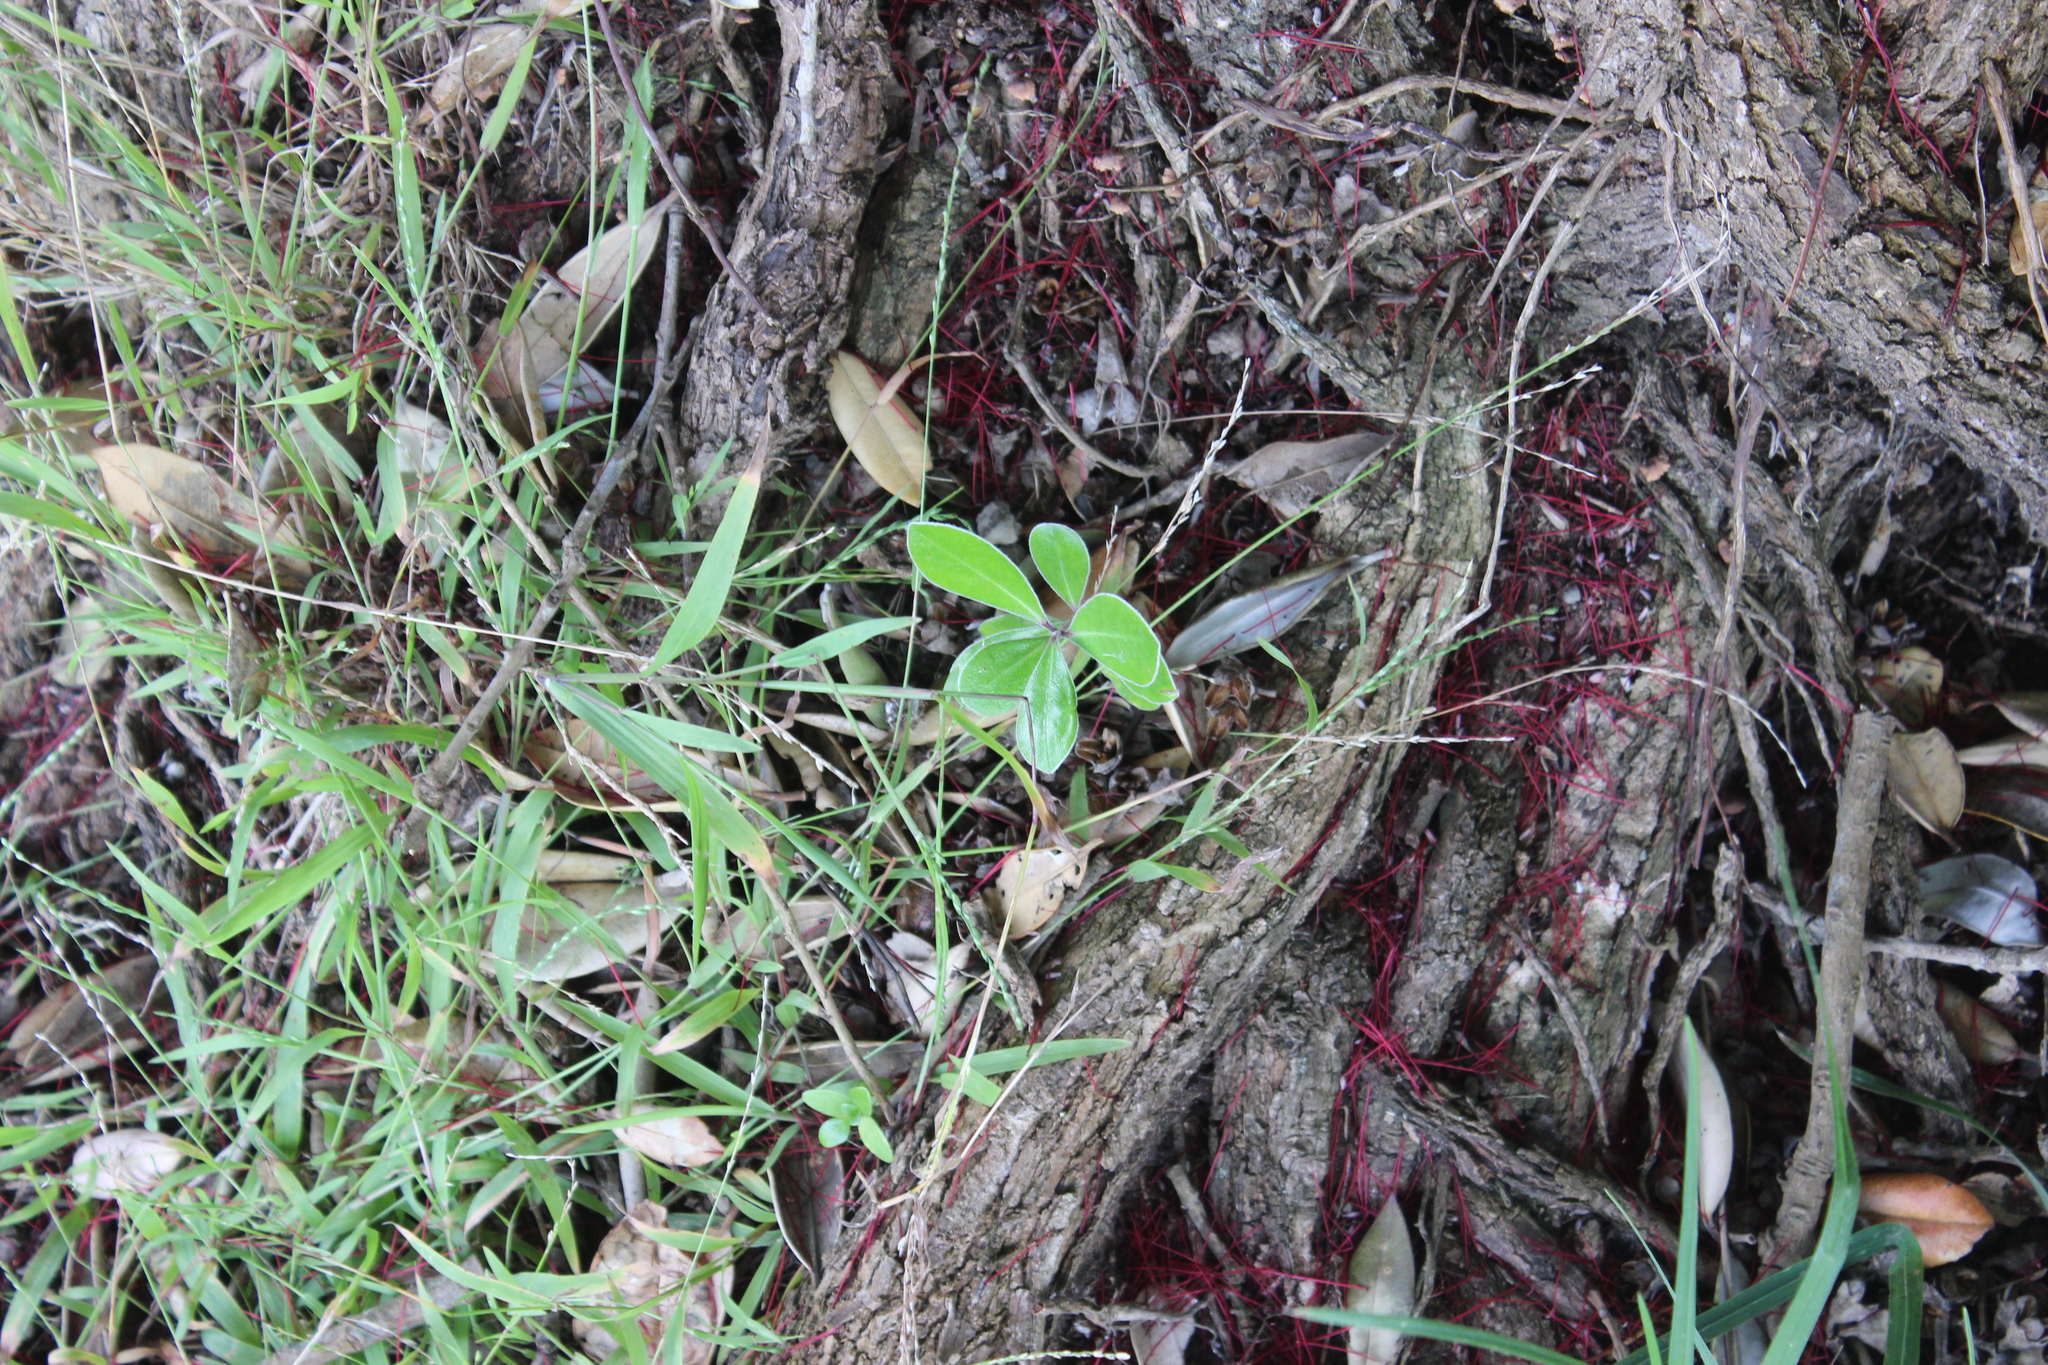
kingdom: Plantae
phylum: Tracheophyta
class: Magnoliopsida
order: Apiales
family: Pittosporaceae
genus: Pittosporum
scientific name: Pittosporum crassifolium
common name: Karo
